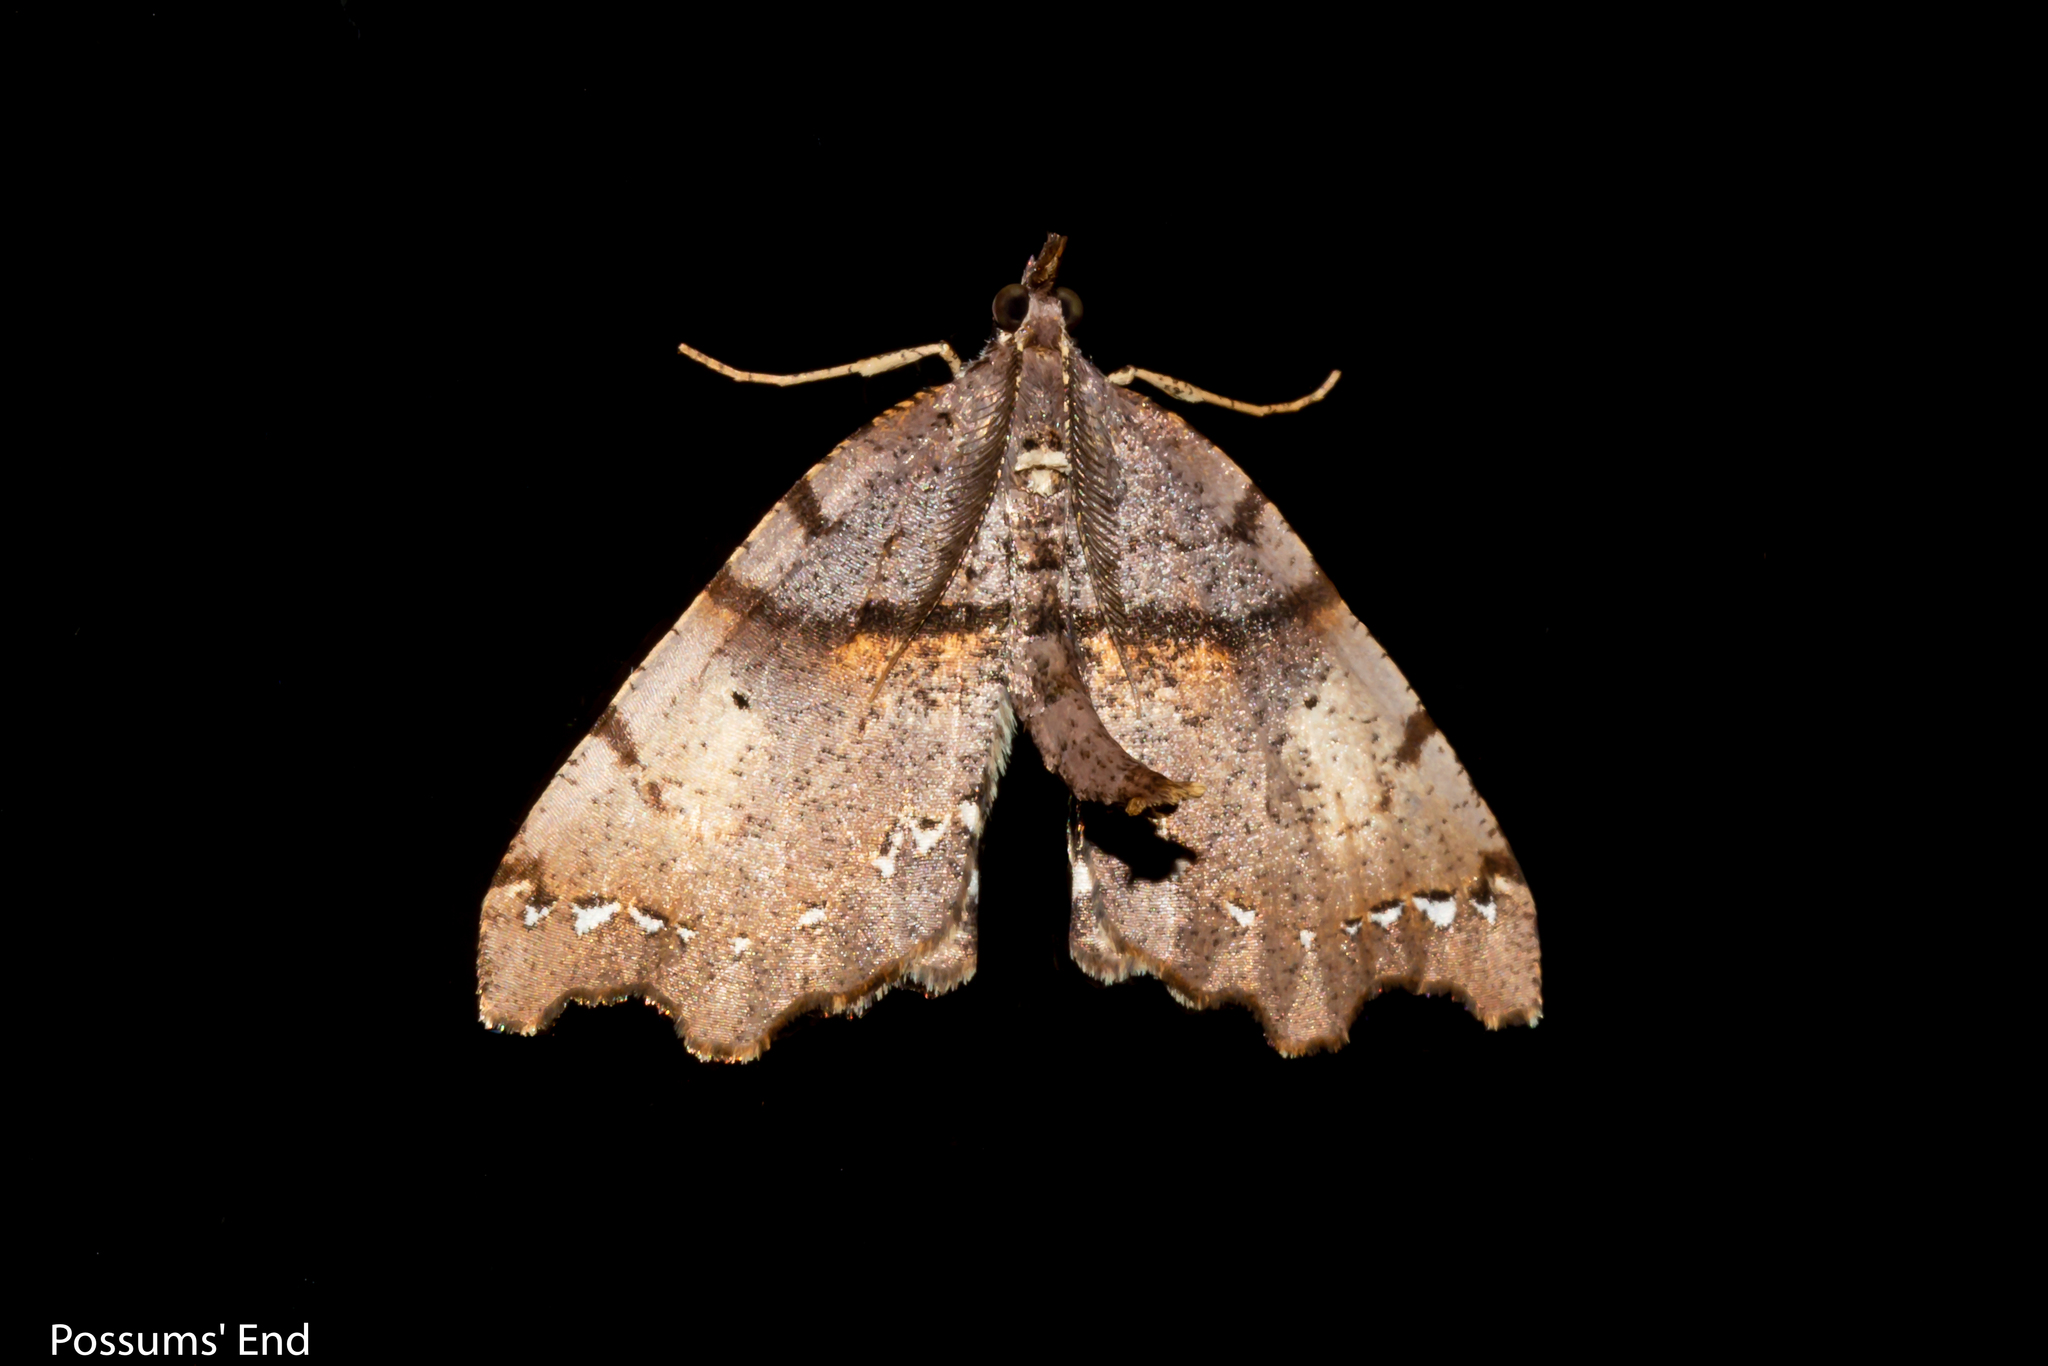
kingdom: Animalia
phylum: Arthropoda
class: Insecta
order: Lepidoptera
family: Geometridae
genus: Chalastra
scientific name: Chalastra pellurgata
